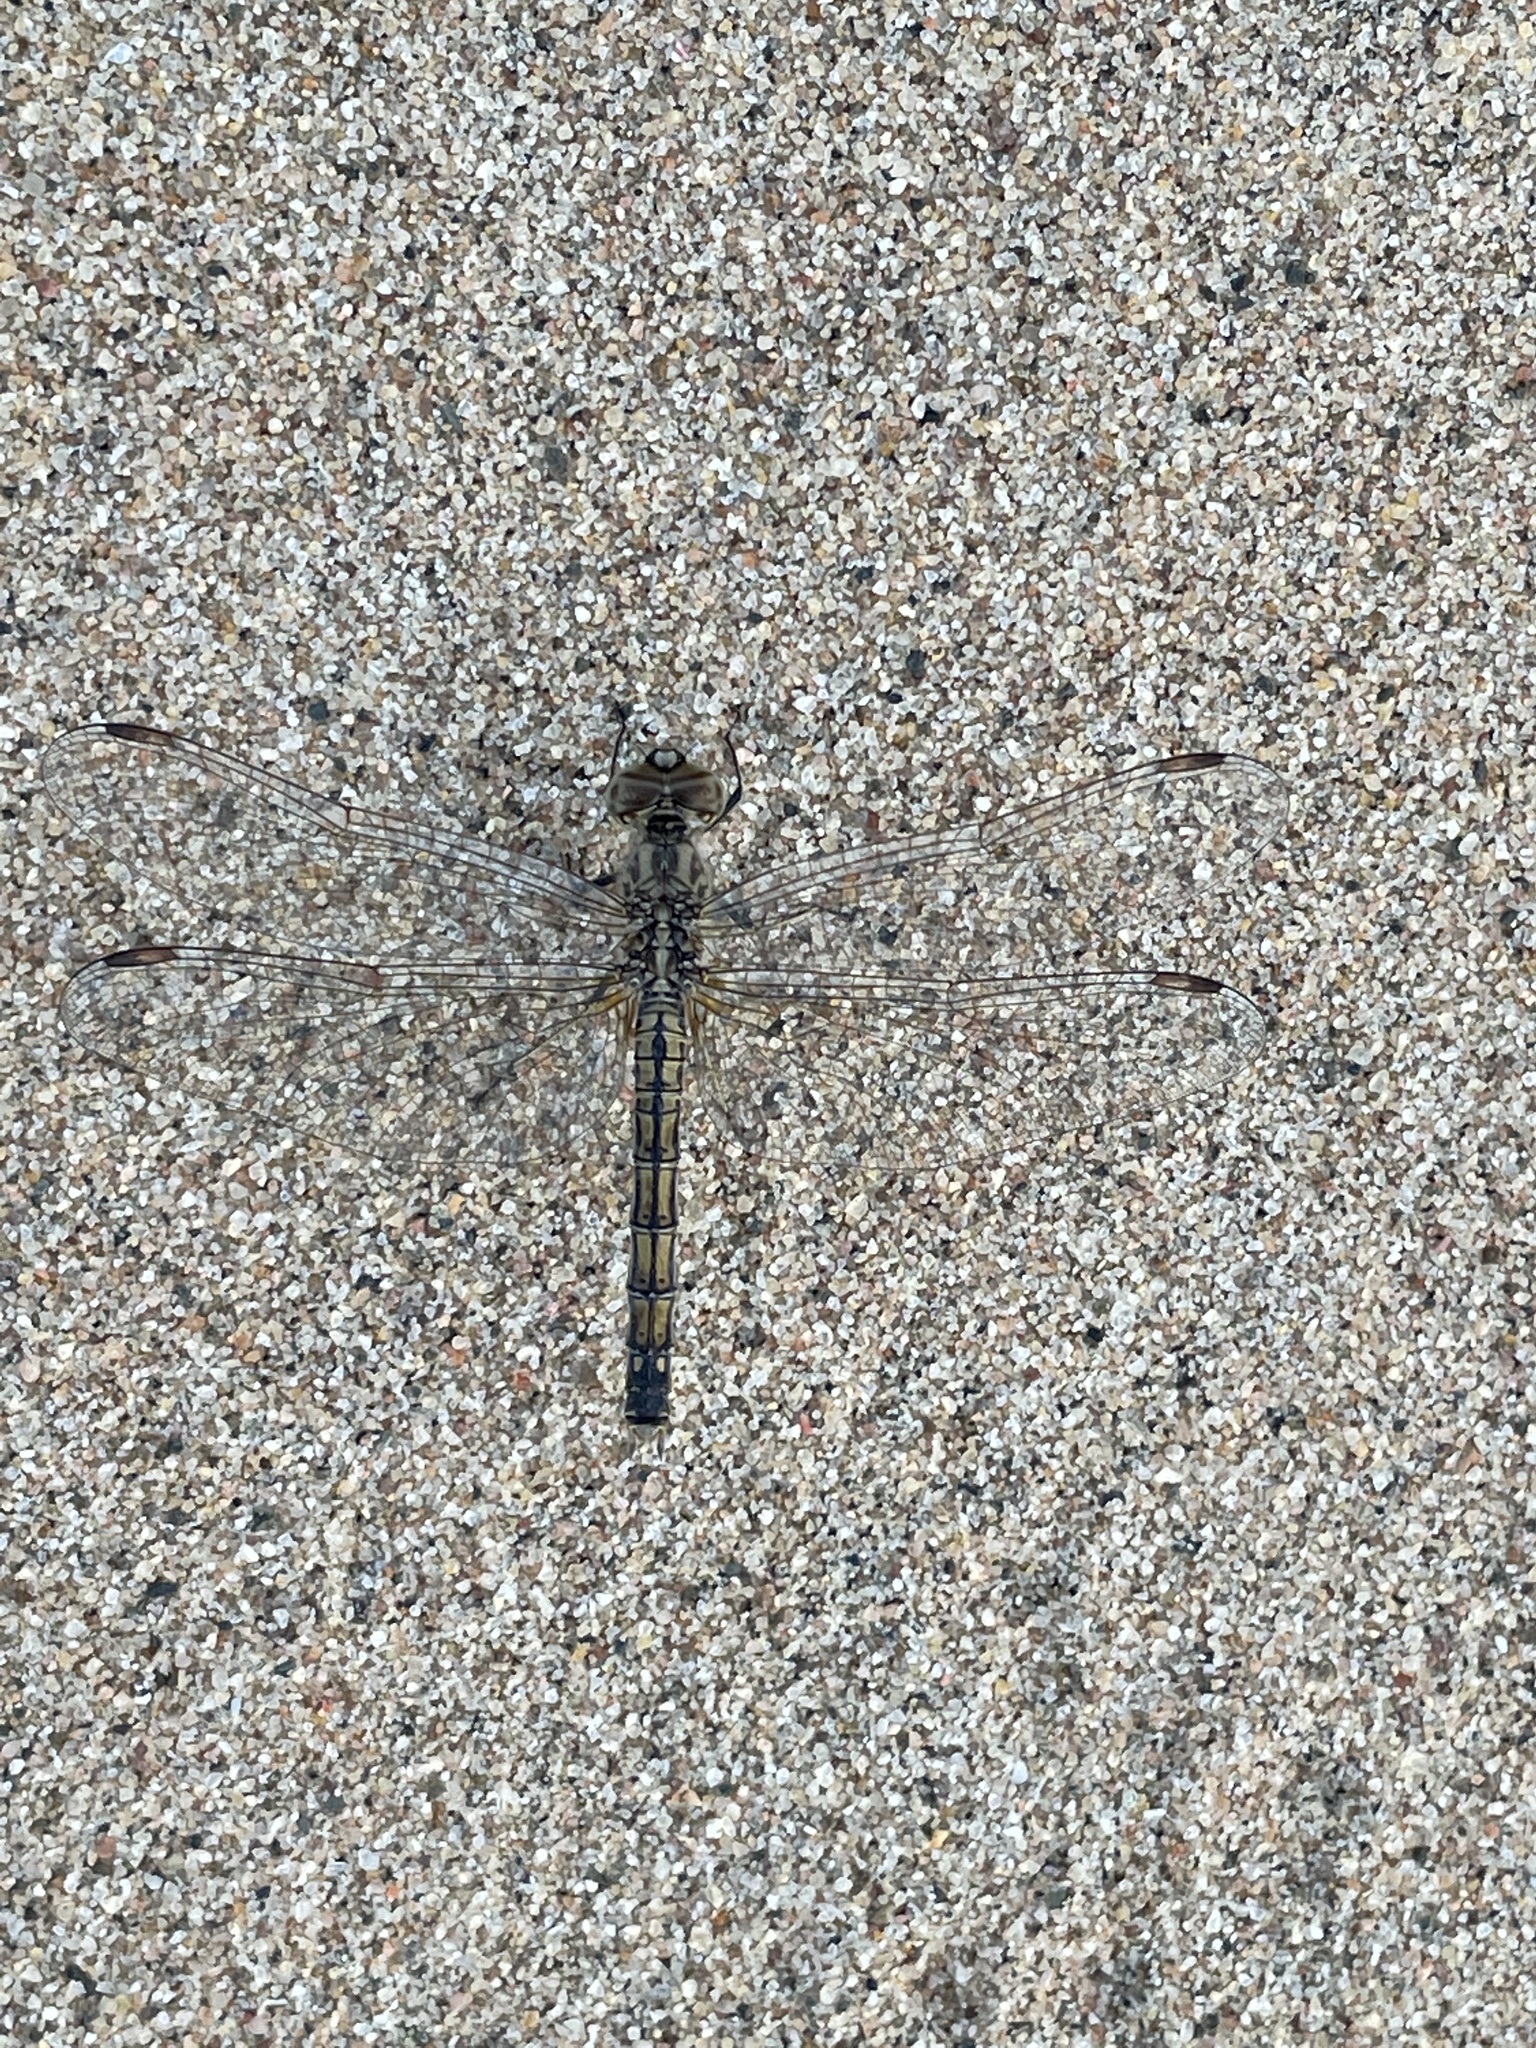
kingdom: Animalia
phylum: Arthropoda
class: Insecta
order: Odonata
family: Libellulidae
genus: Brachythemis
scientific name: Brachythemis leucosticta
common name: Banded groundling
